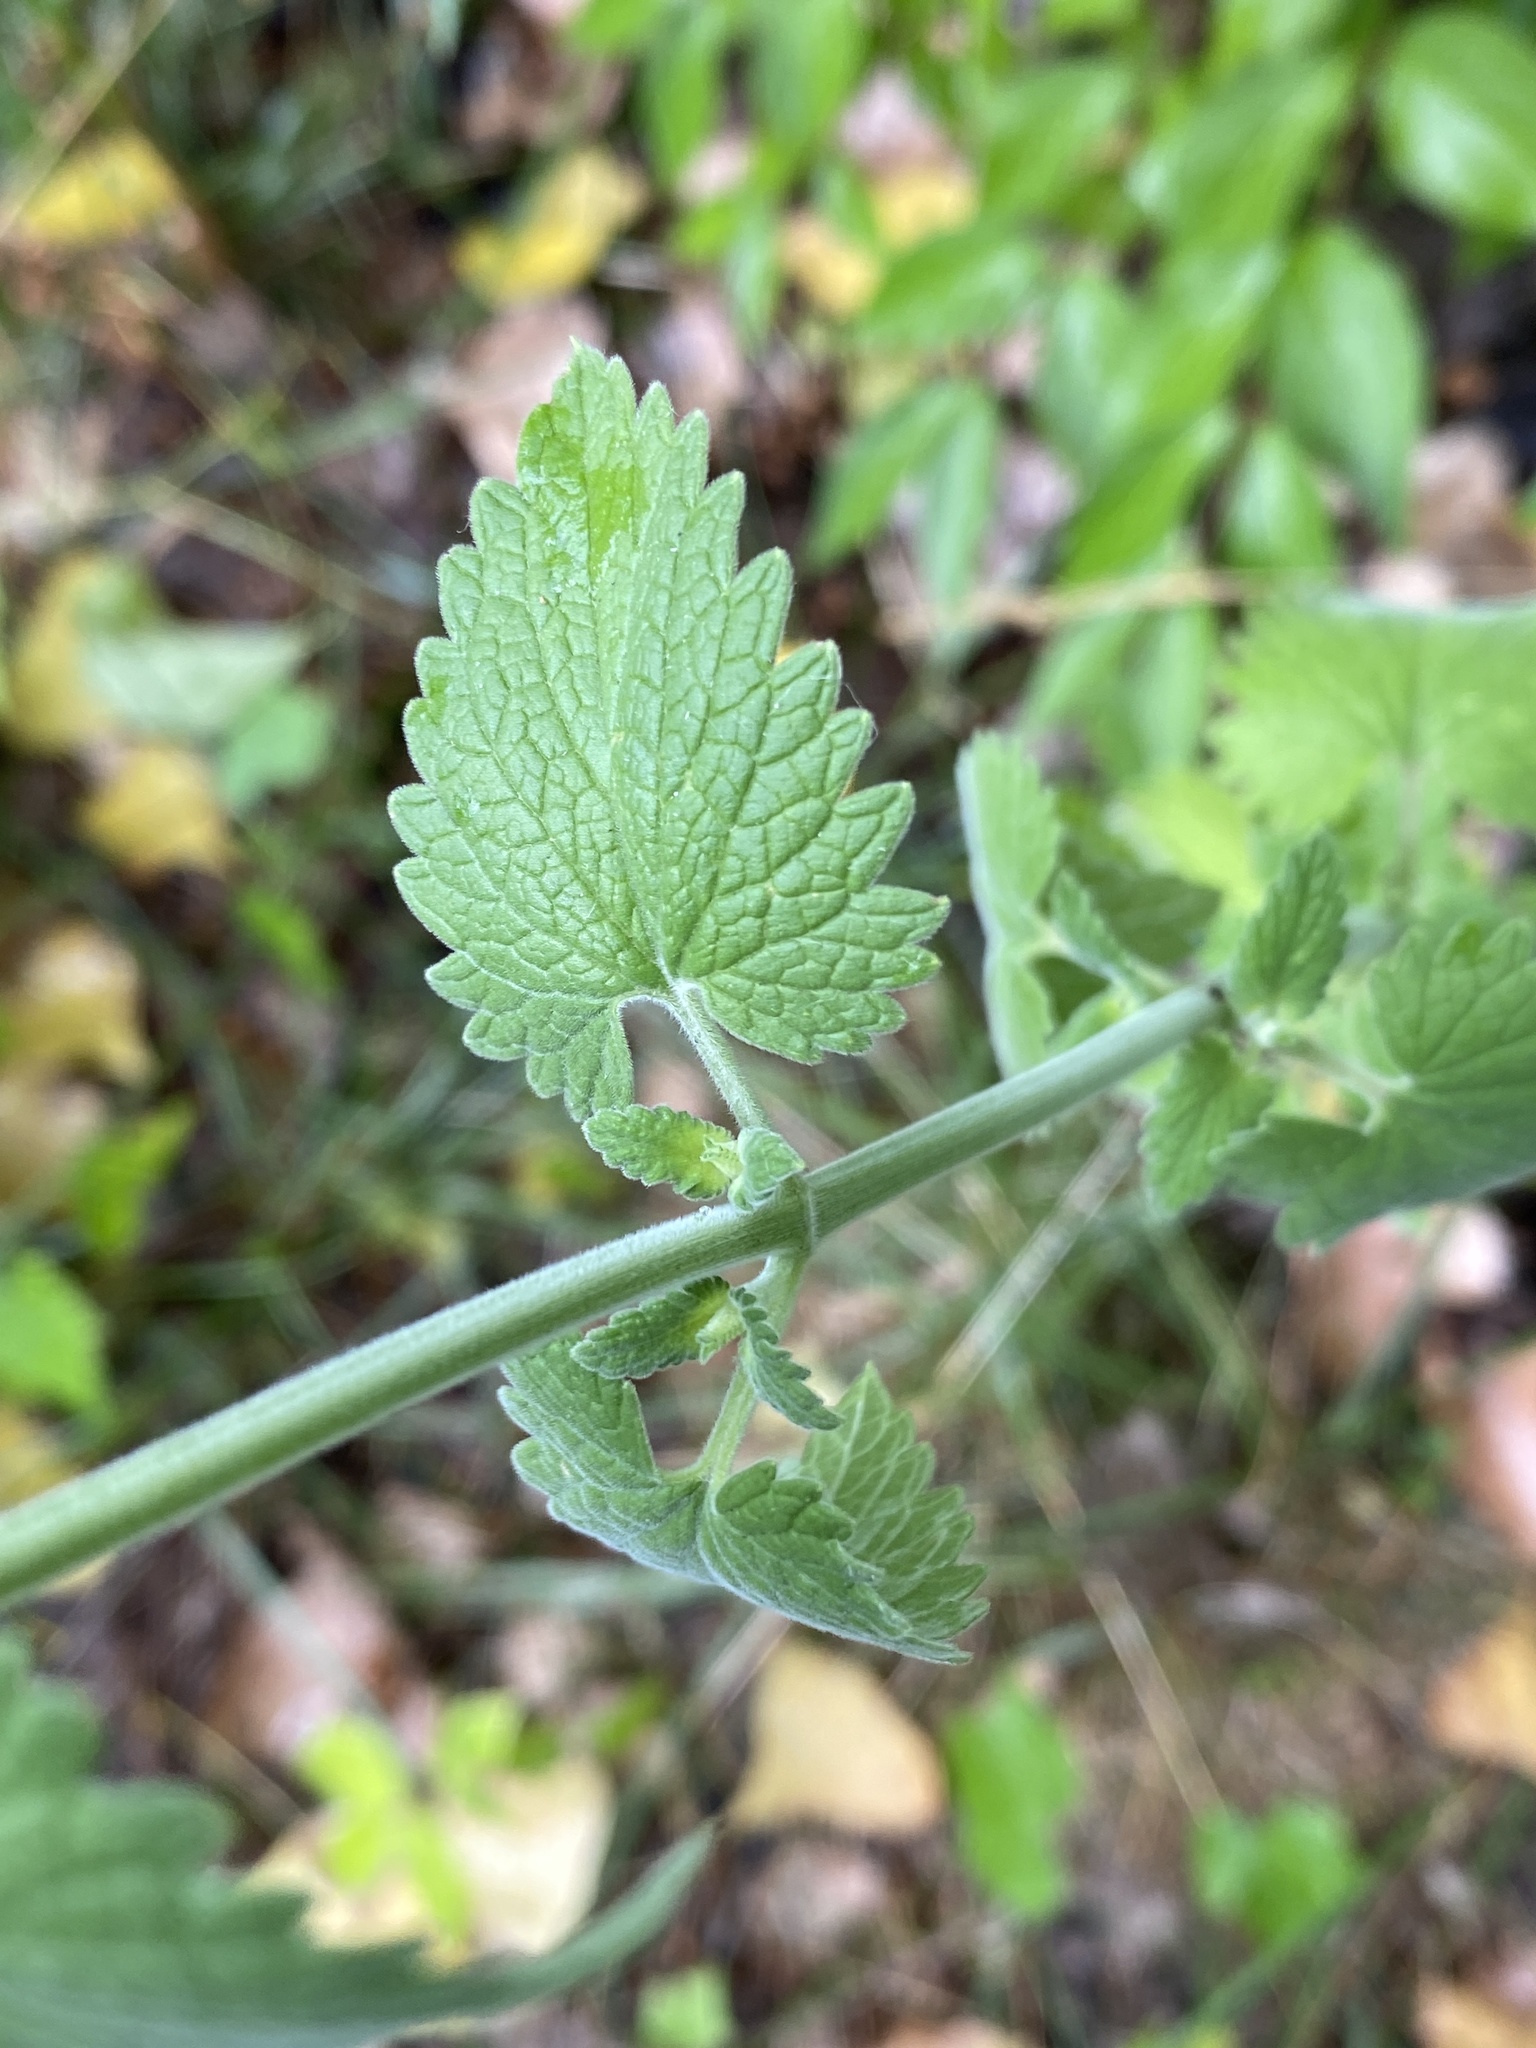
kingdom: Plantae
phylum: Tracheophyta
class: Magnoliopsida
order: Lamiales
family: Lamiaceae
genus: Nepeta
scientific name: Nepeta cataria
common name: Catnip
